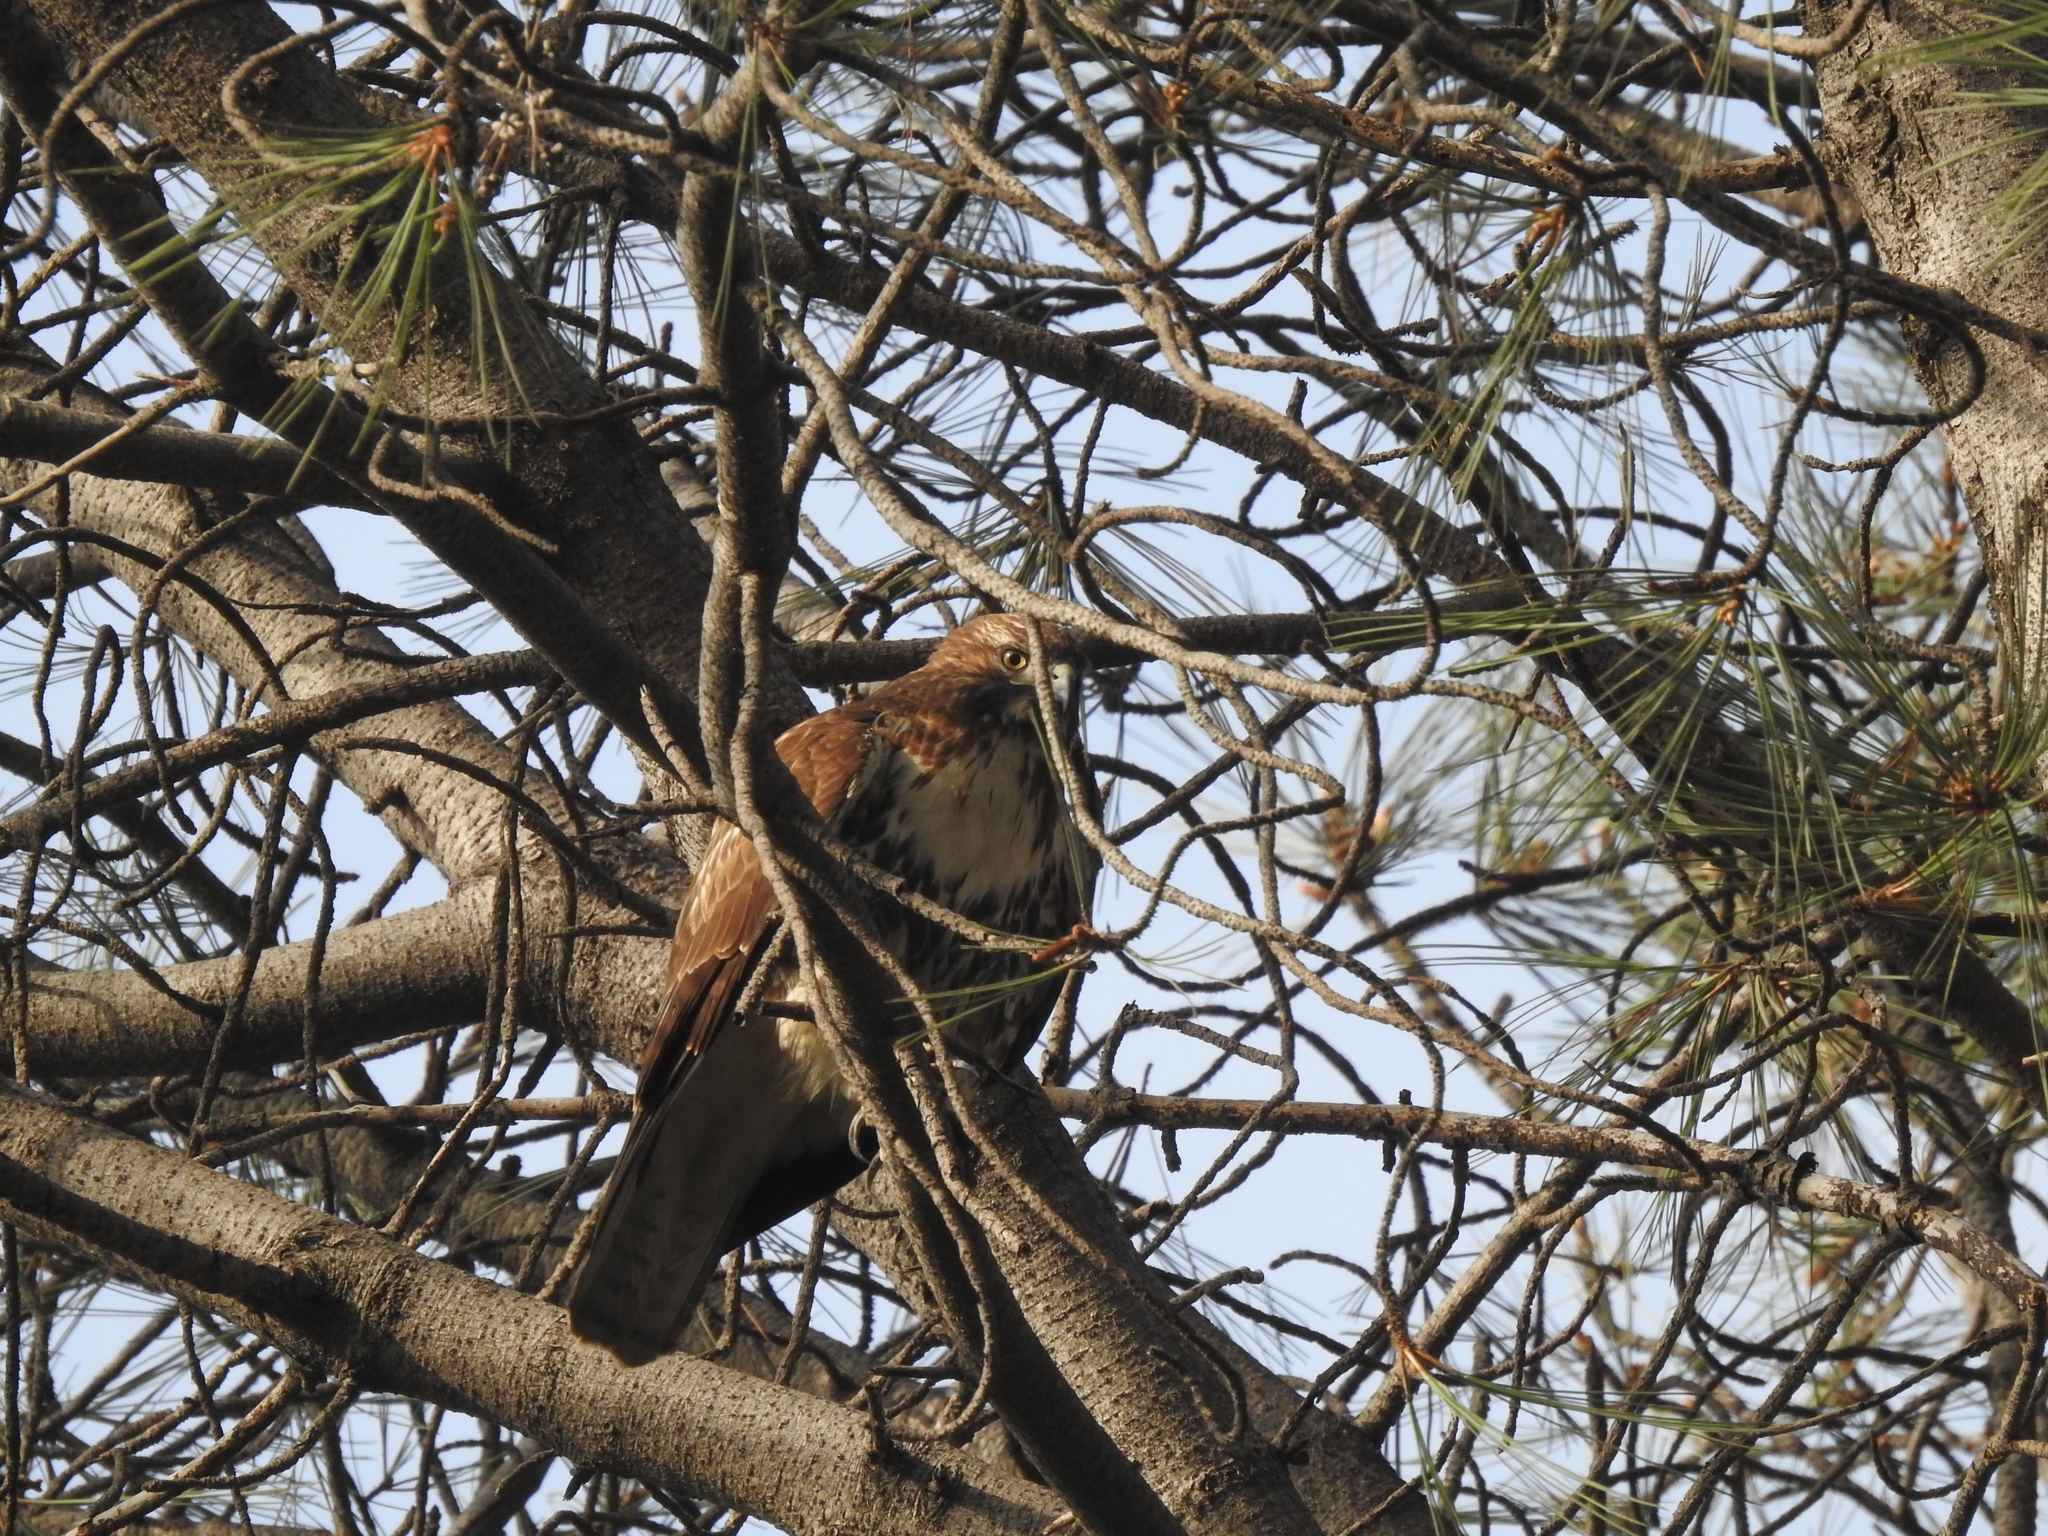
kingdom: Animalia
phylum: Chordata
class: Aves
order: Accipitriformes
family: Accipitridae
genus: Buteo
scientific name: Buteo jamaicensis
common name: Red-tailed hawk
